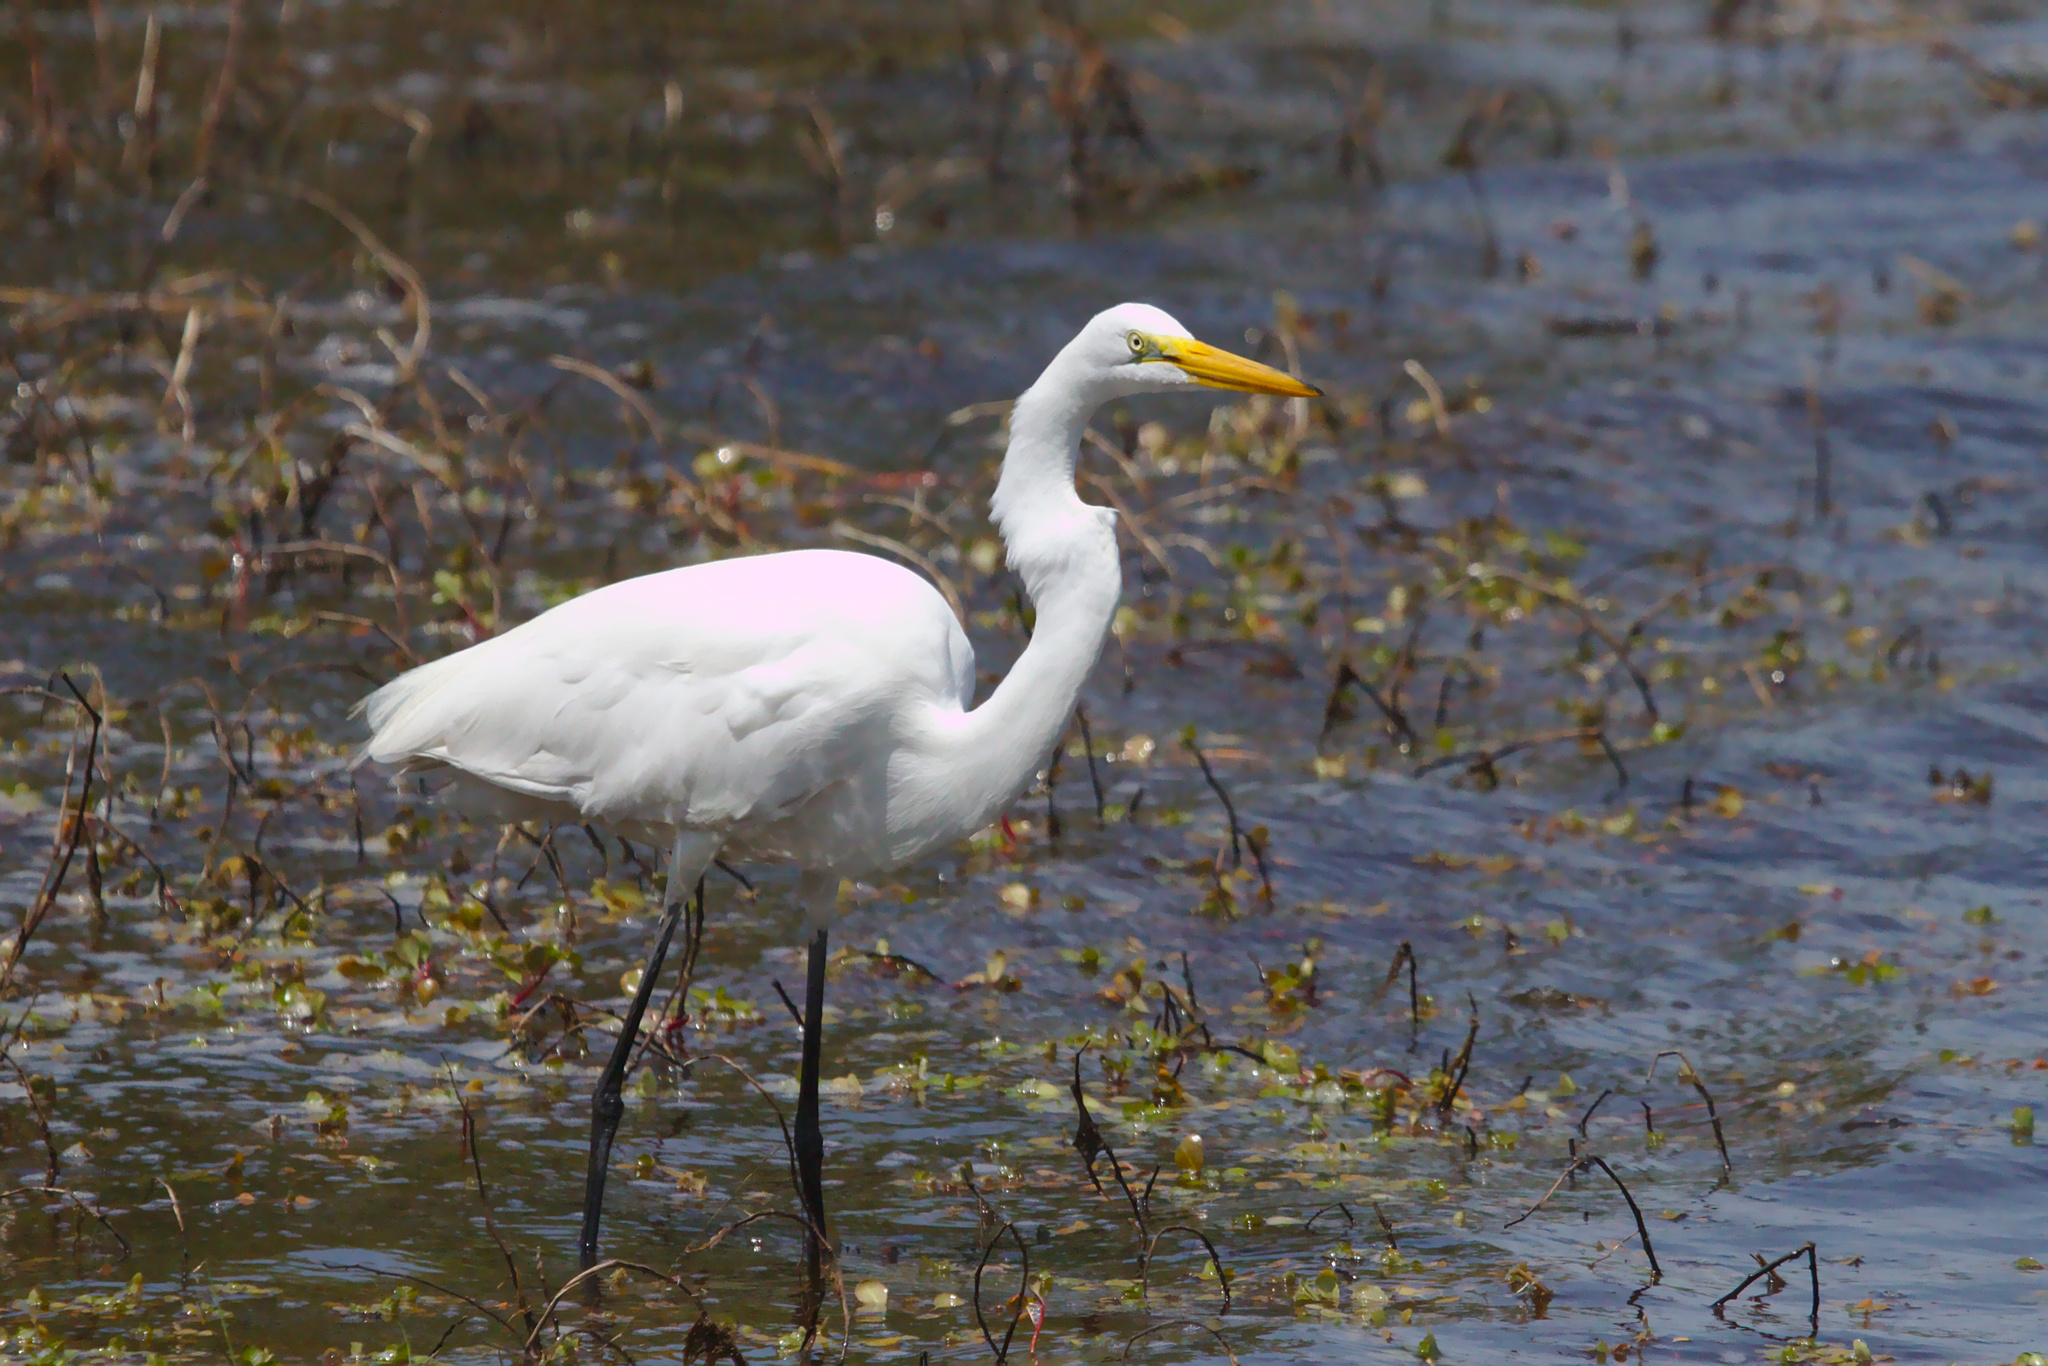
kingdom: Animalia
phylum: Chordata
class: Aves
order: Pelecaniformes
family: Ardeidae
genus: Ardea
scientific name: Ardea alba
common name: Great egret
